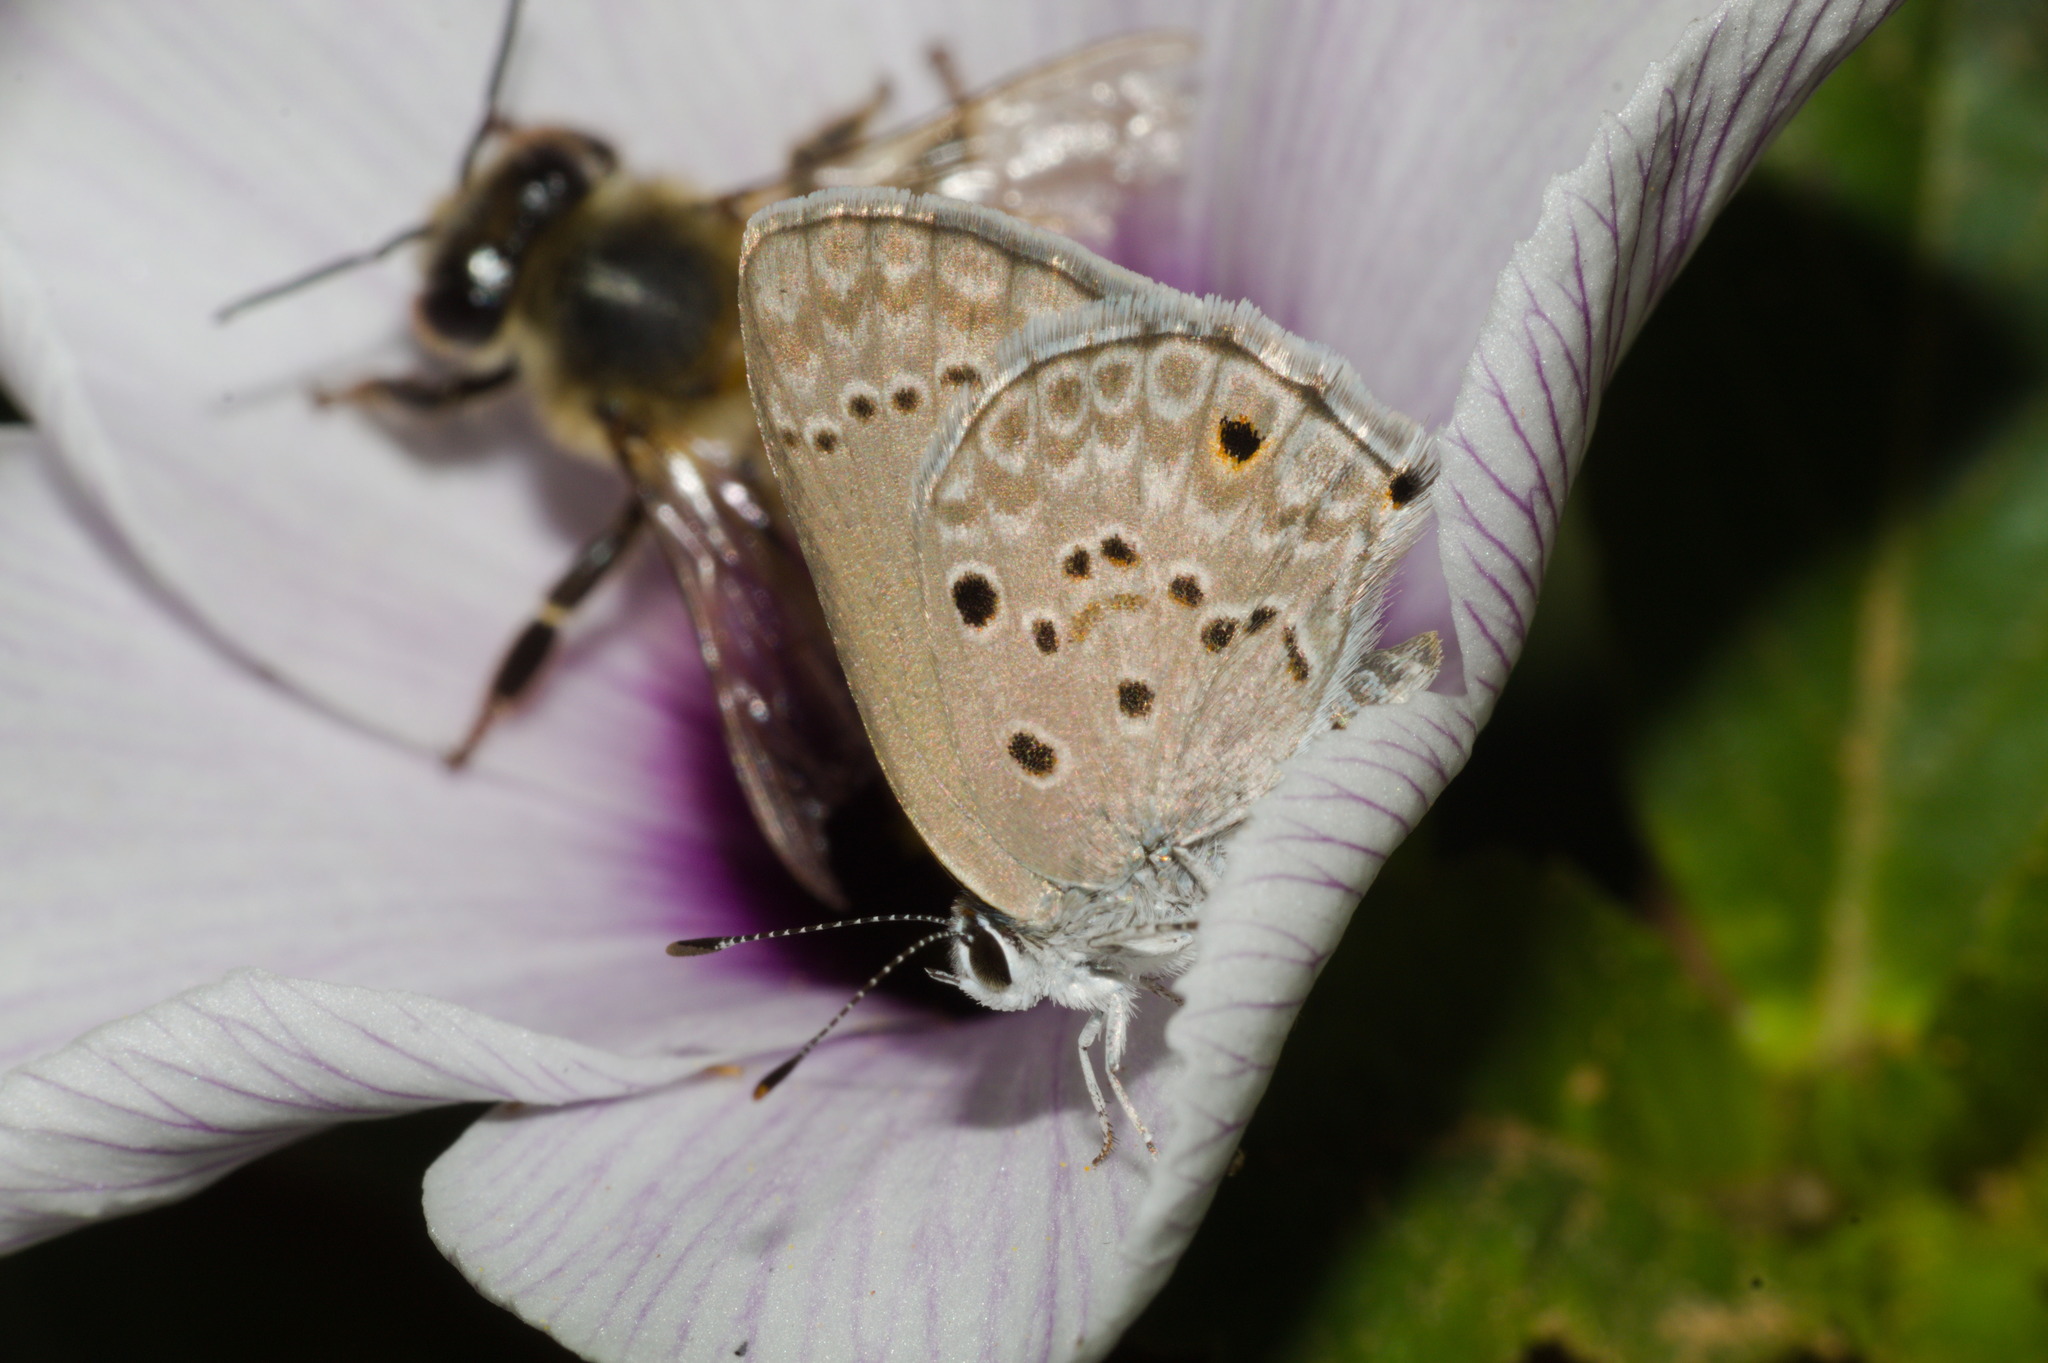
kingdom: Animalia
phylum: Arthropoda
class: Insecta
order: Lepidoptera
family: Lycaenidae
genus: Strymon
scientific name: Strymon bubastus
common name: Bubastes hairstreak
